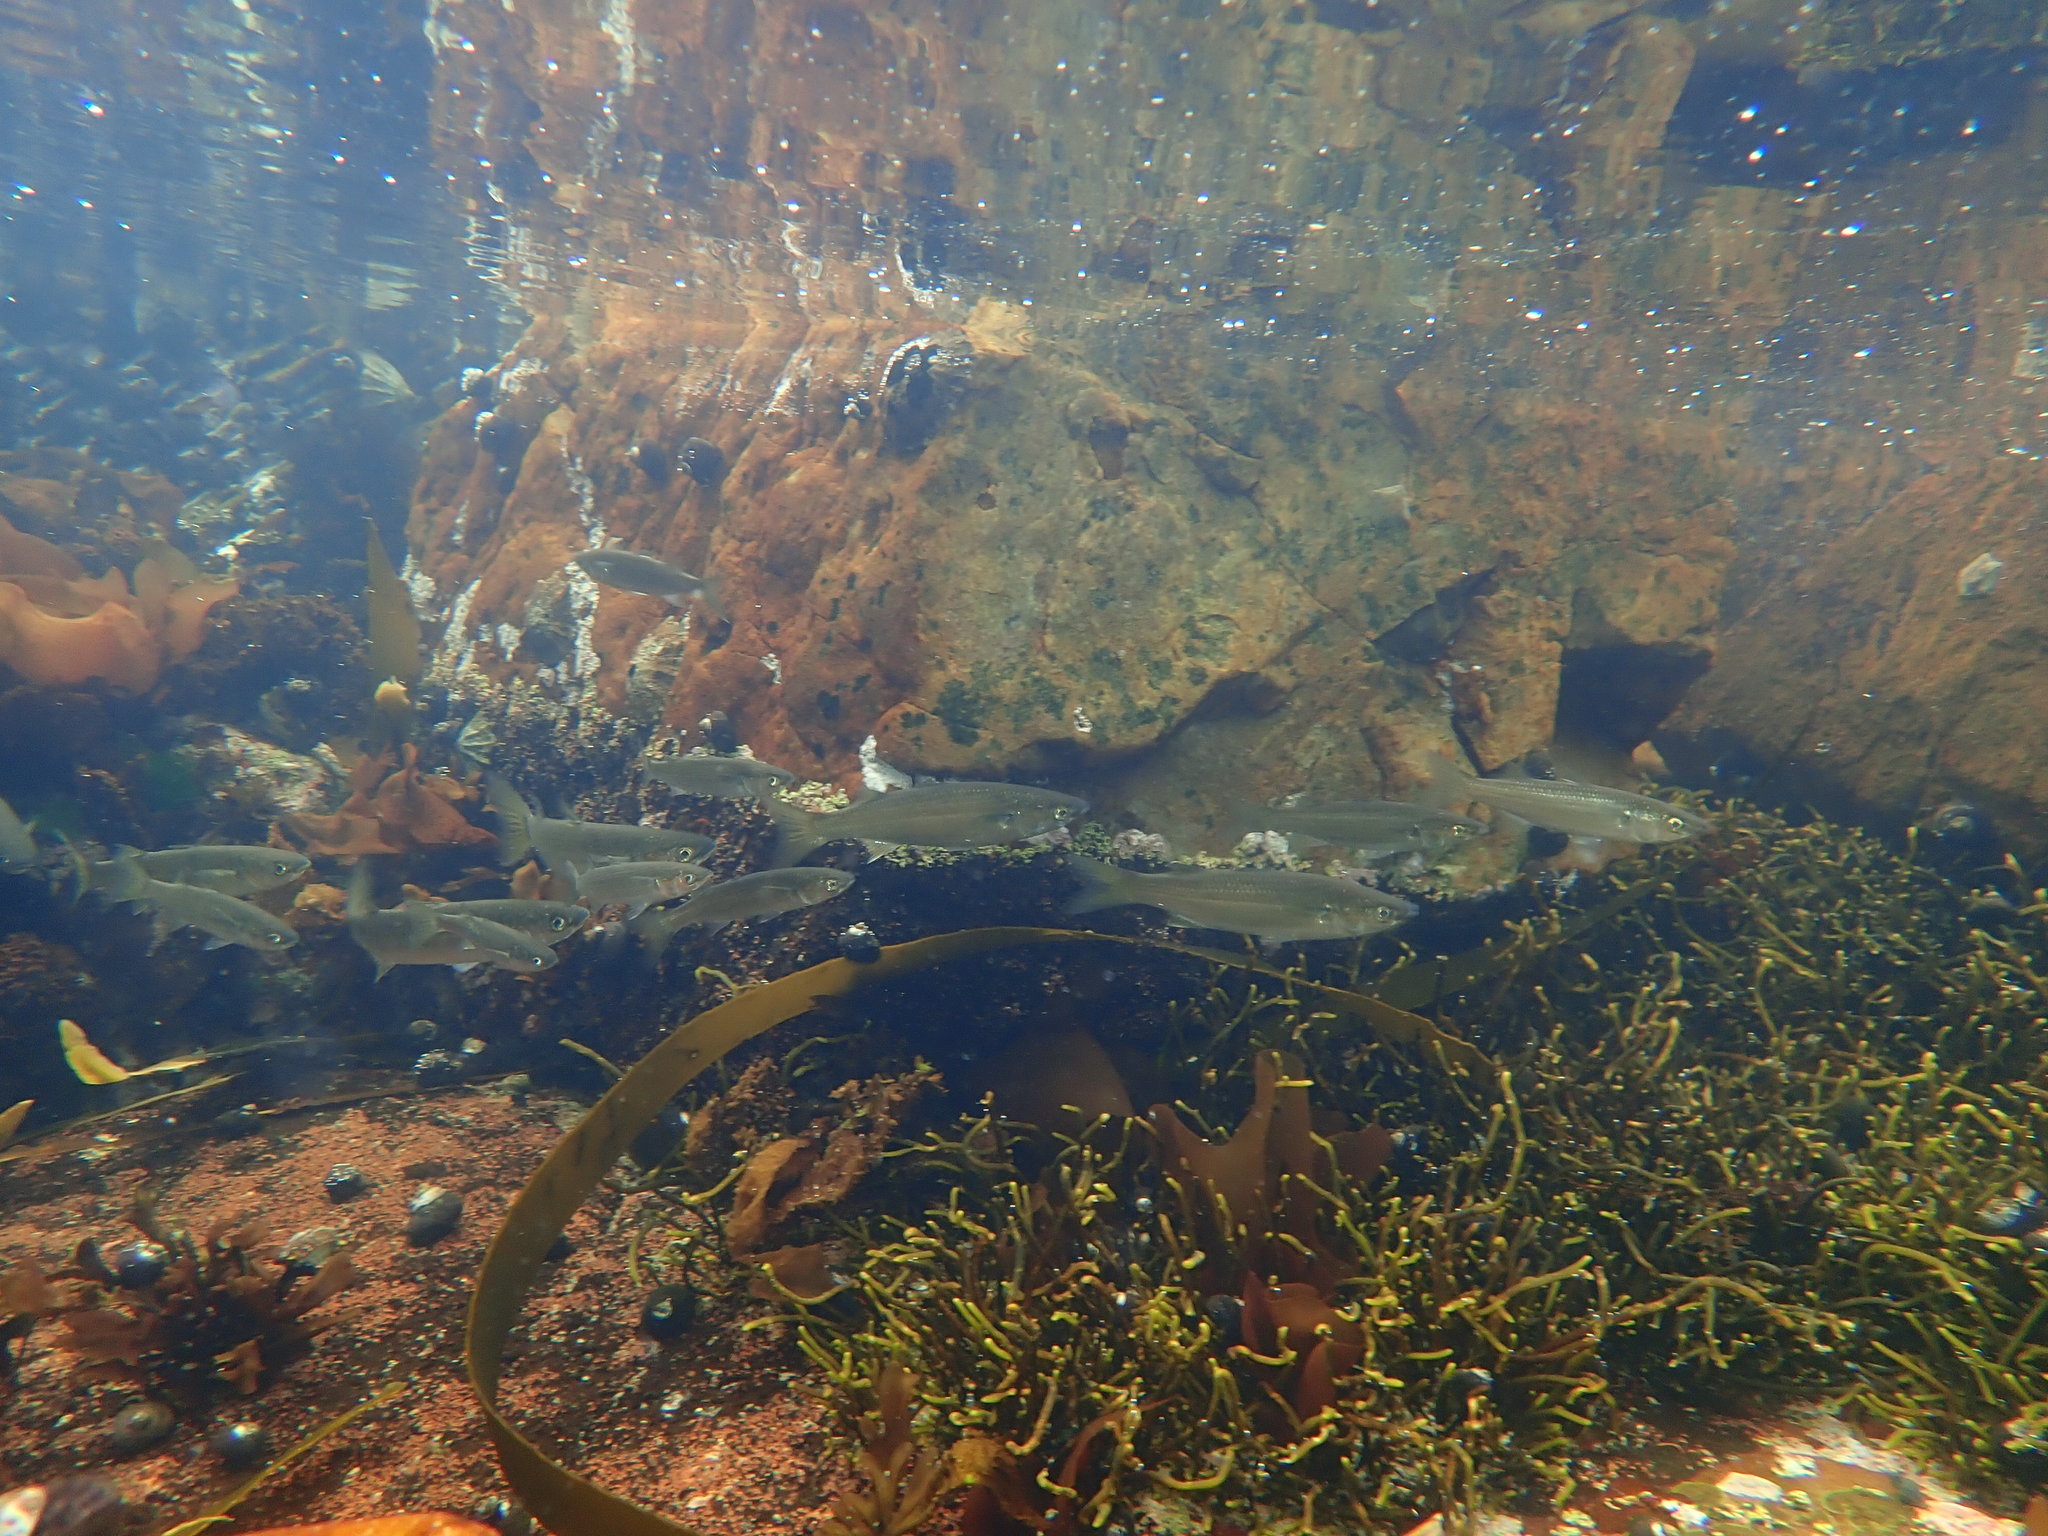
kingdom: Animalia
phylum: Chordata
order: Mugiliformes
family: Mugilidae
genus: Chelon
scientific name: Chelon richardsonii
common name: South african mullet
